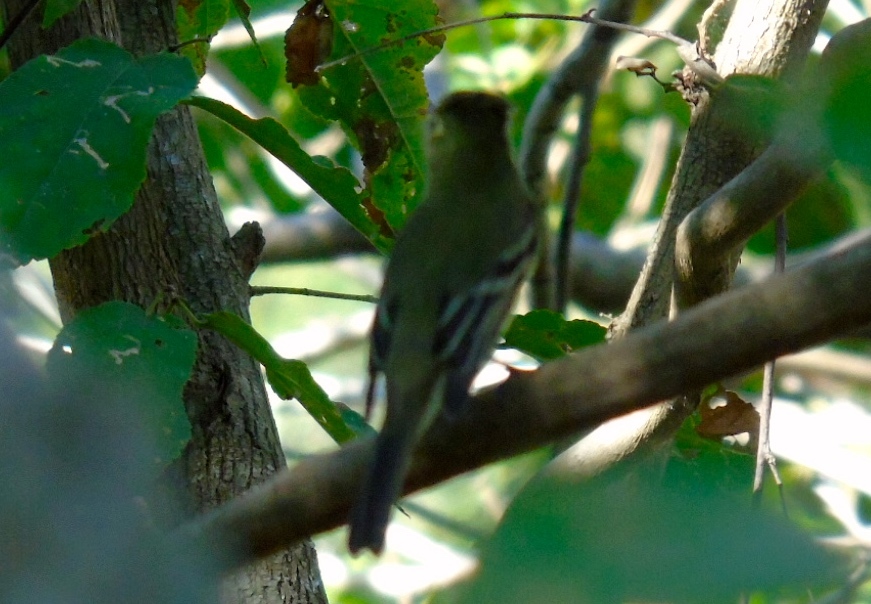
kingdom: Animalia
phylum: Chordata
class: Aves
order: Passeriformes
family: Tyrannidae
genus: Empidonax
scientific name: Empidonax
